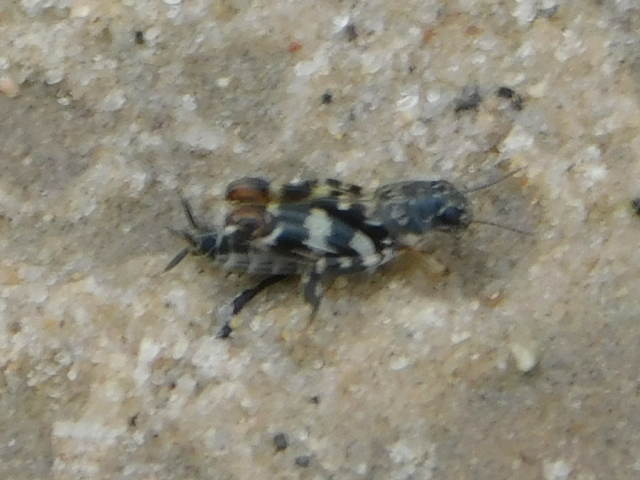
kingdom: Animalia
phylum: Arthropoda
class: Insecta
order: Orthoptera
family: Tridactylidae
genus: Ellipes
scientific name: Ellipes minuta
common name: Minute pygmy locust
